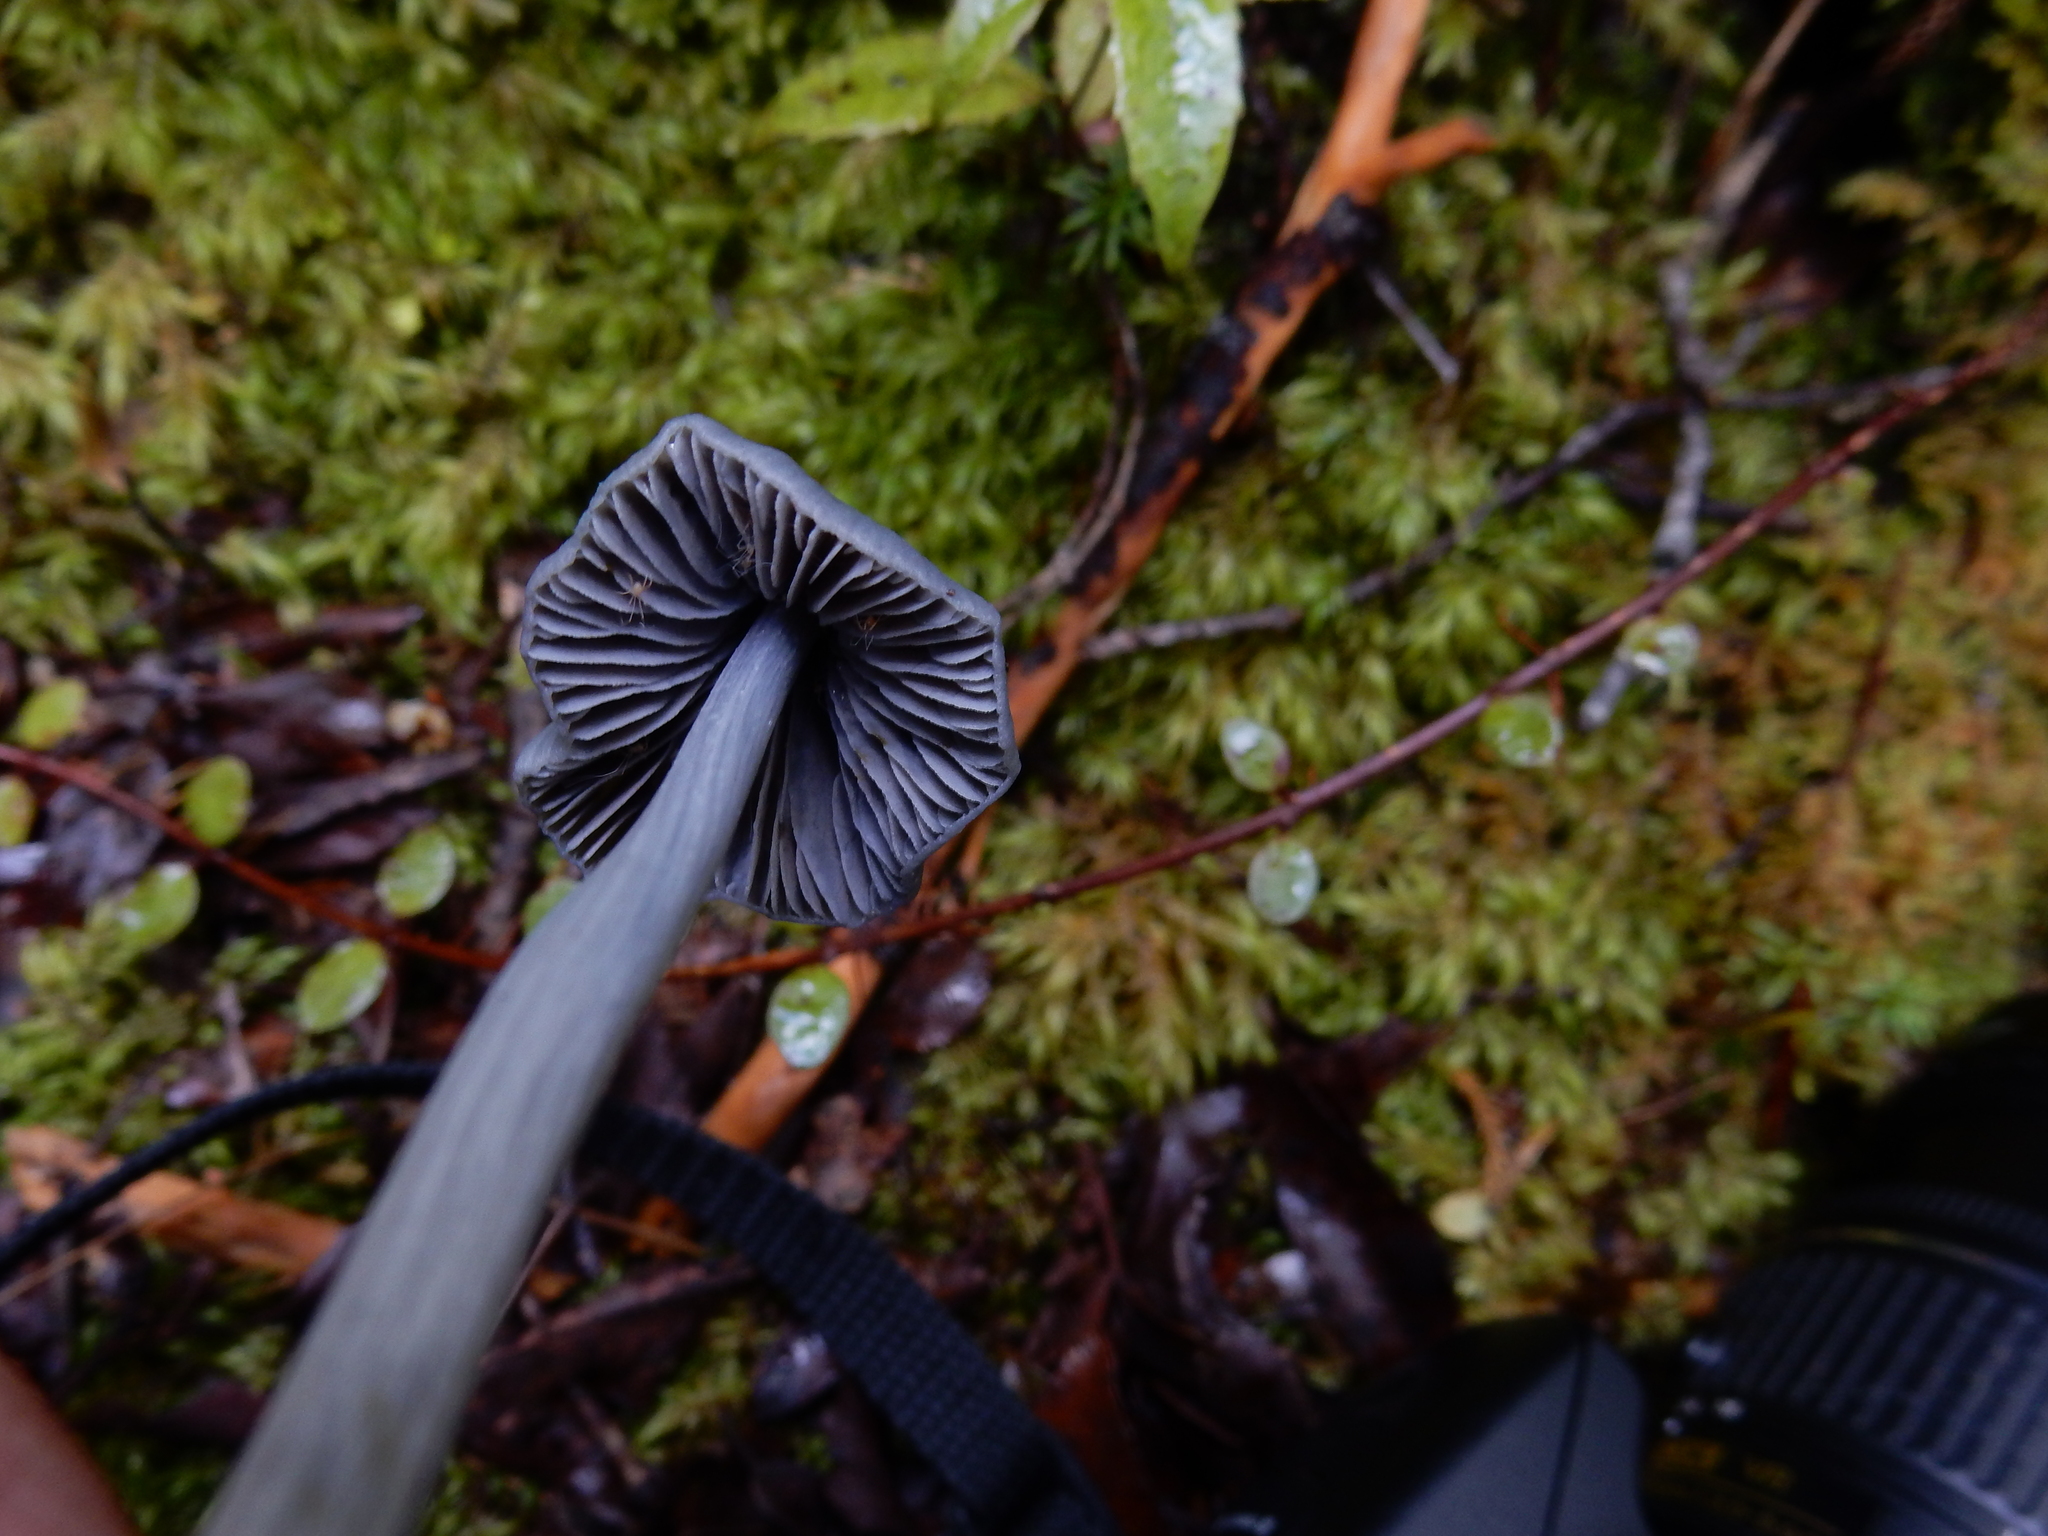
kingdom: Fungi
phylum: Basidiomycota
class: Agaricomycetes
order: Agaricales
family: Entolomataceae
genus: Entoloma
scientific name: Entoloma canoconicum
